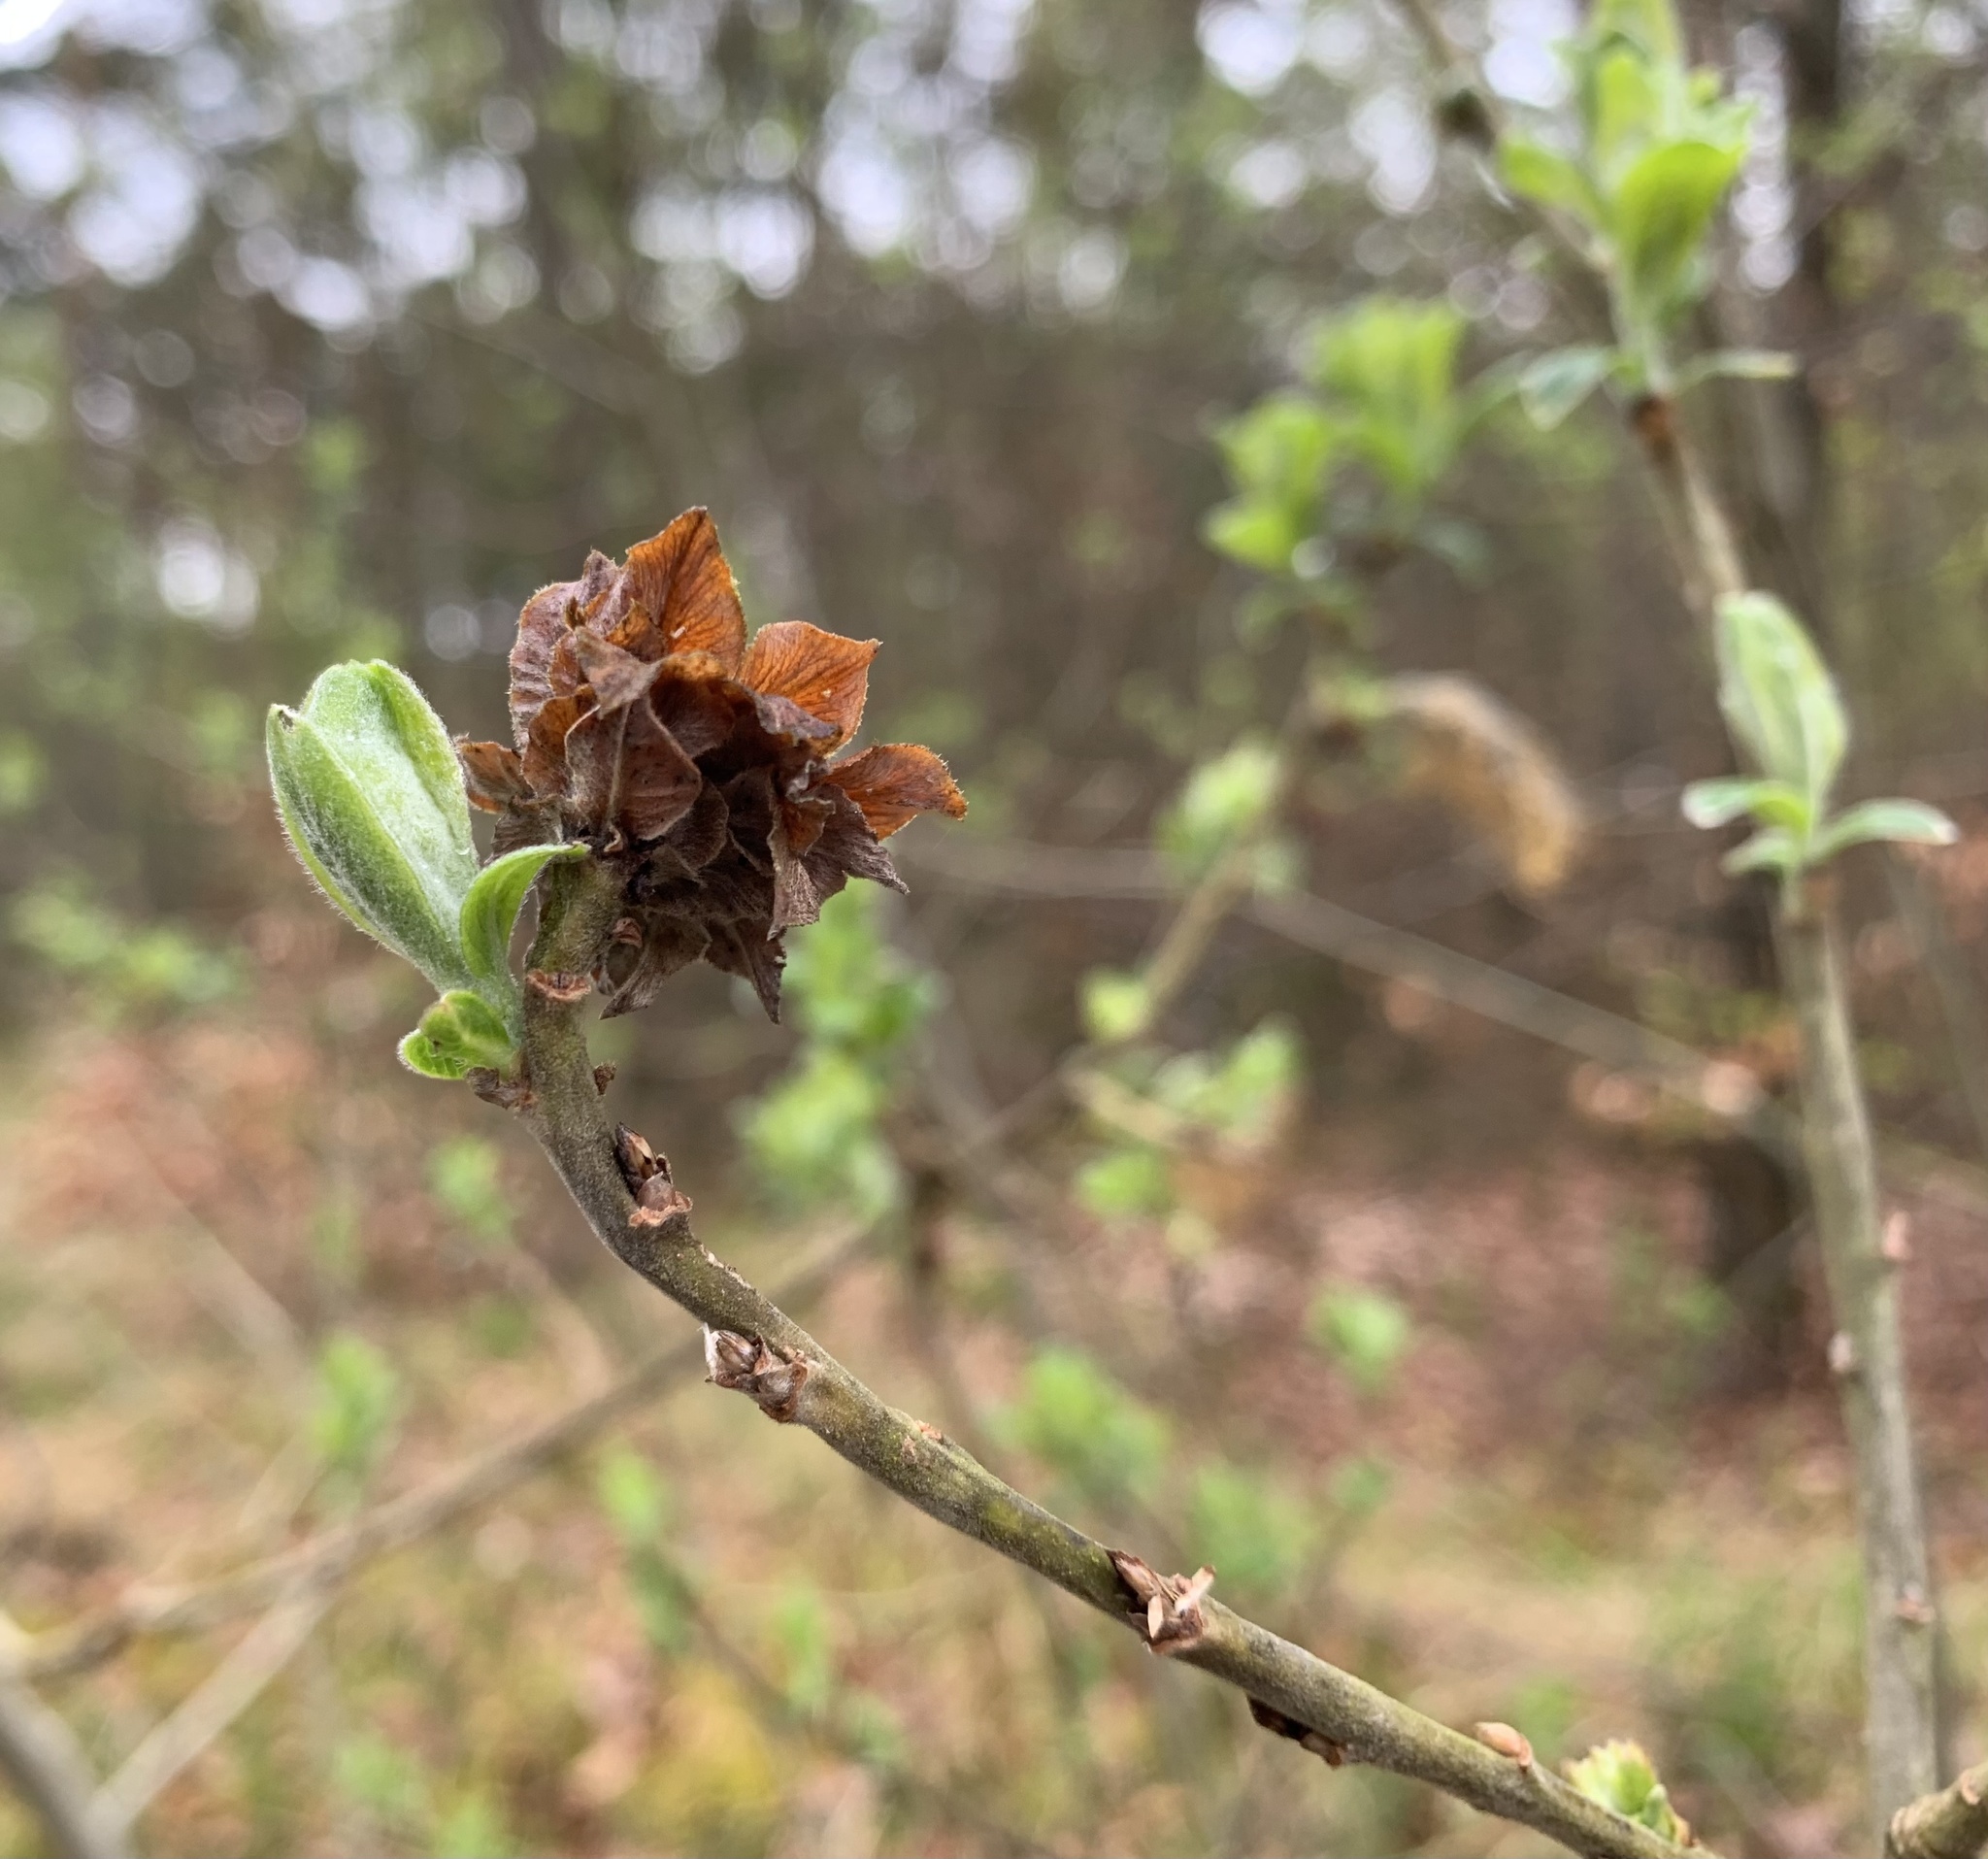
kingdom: Animalia
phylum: Arthropoda
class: Insecta
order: Diptera
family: Cecidomyiidae
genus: Rabdophaga
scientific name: Rabdophaga rosaria
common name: Willow rose gall midge
